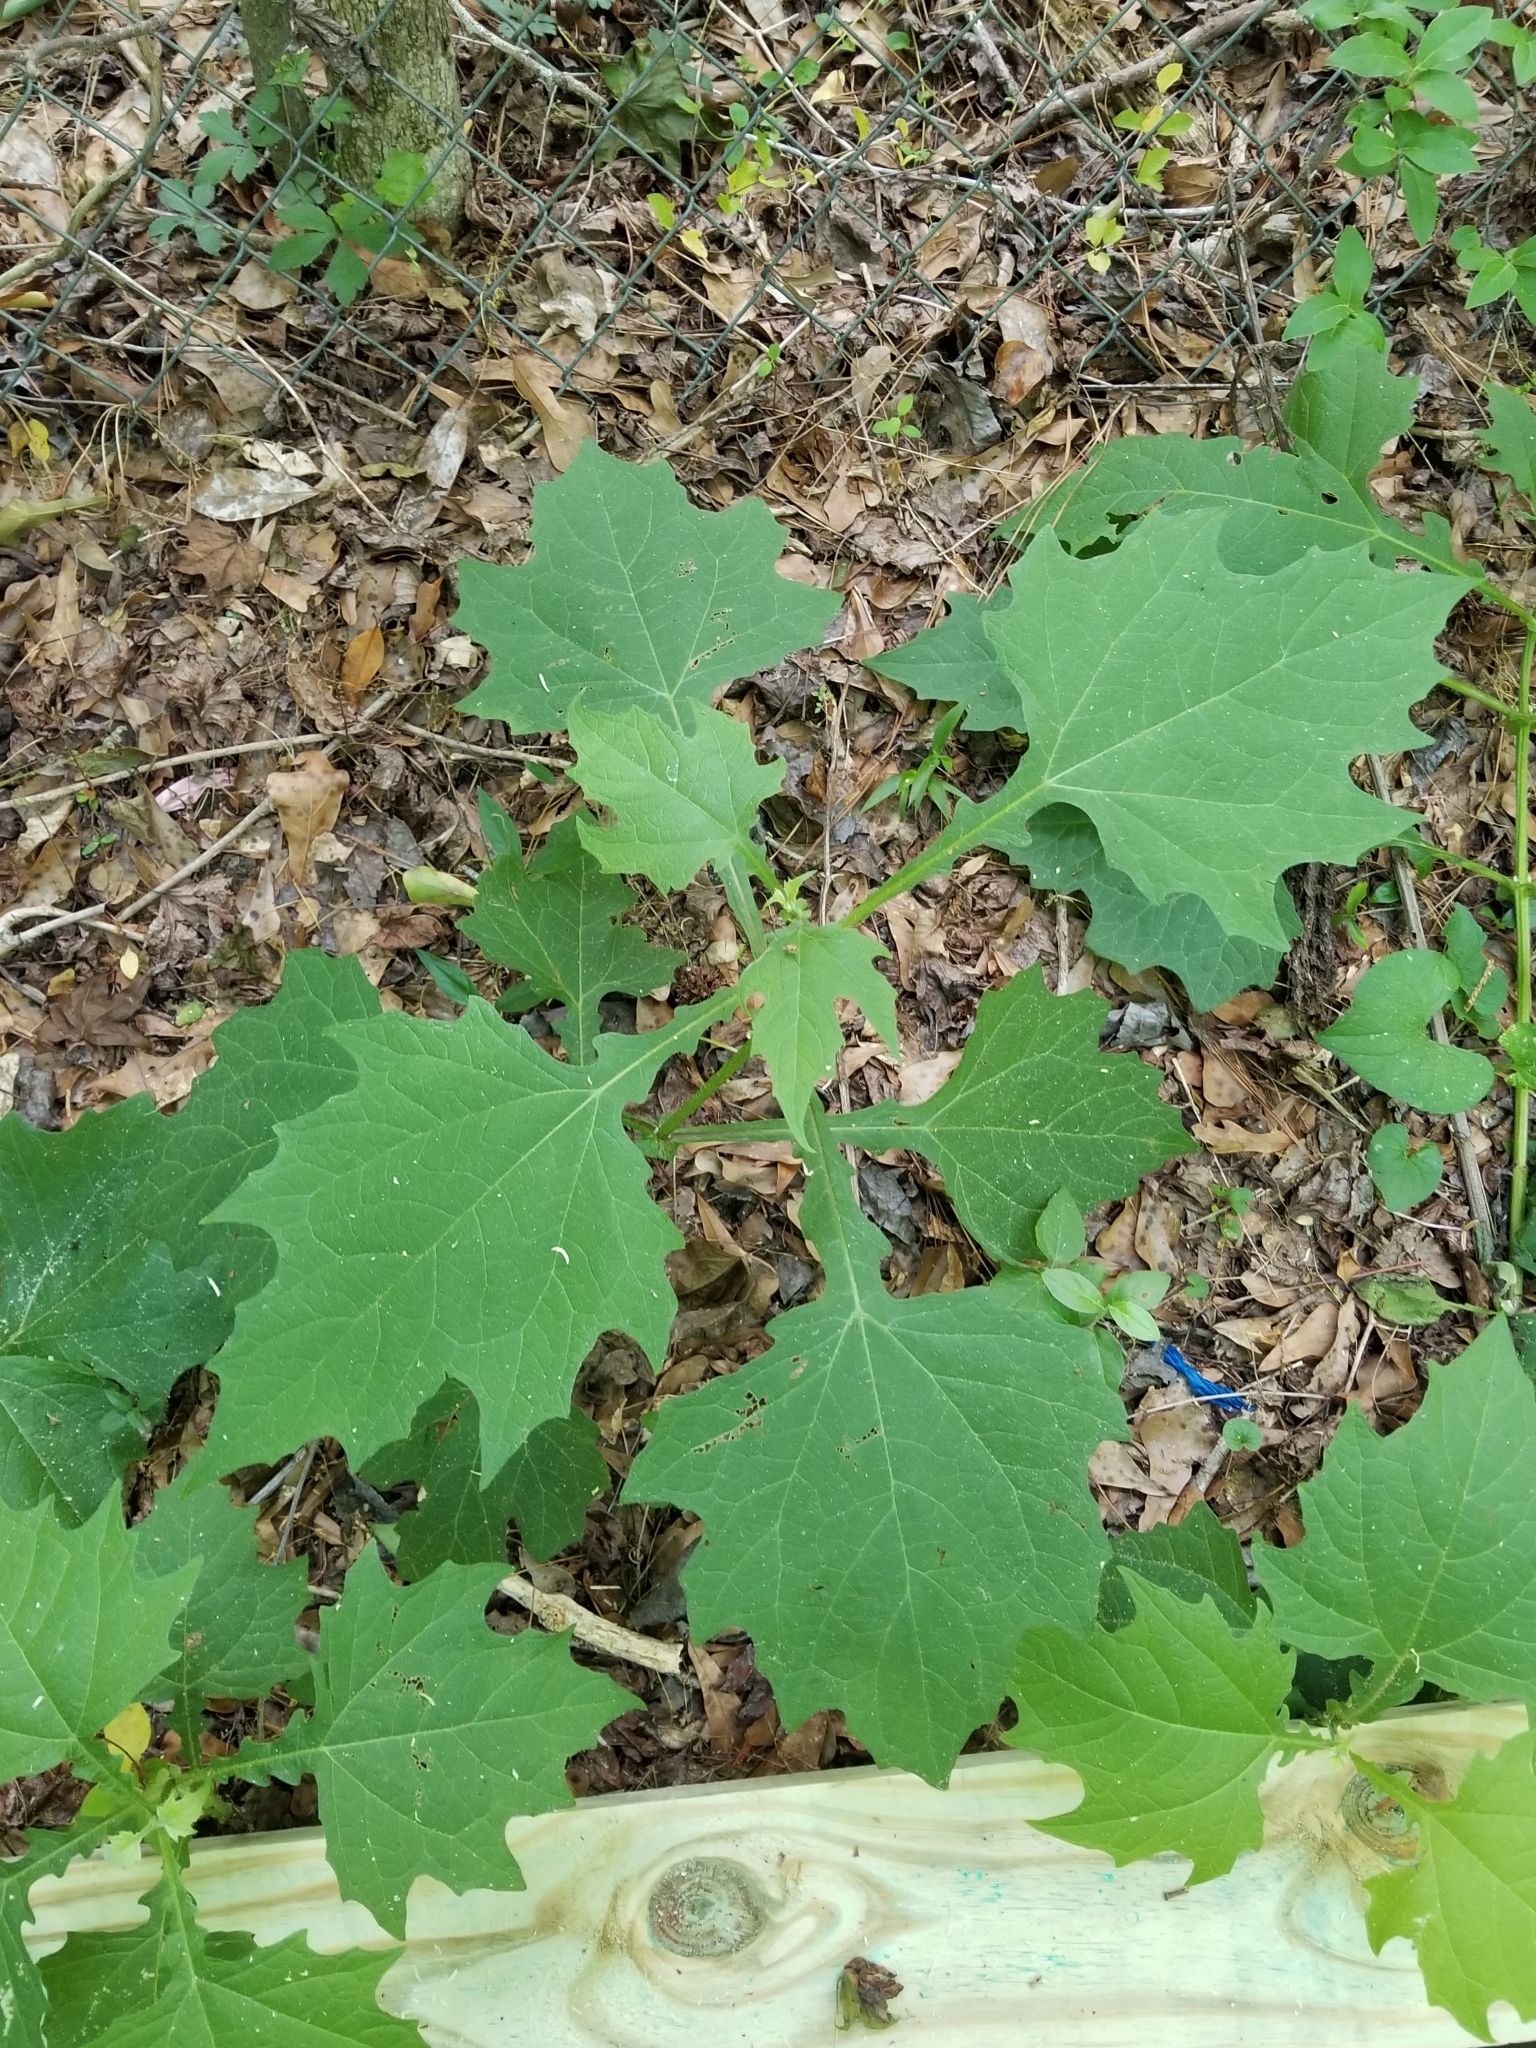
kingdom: Plantae
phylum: Tracheophyta
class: Magnoliopsida
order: Asterales
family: Asteraceae
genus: Smallanthus
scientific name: Smallanthus uvedalia
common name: Bear's-foot
